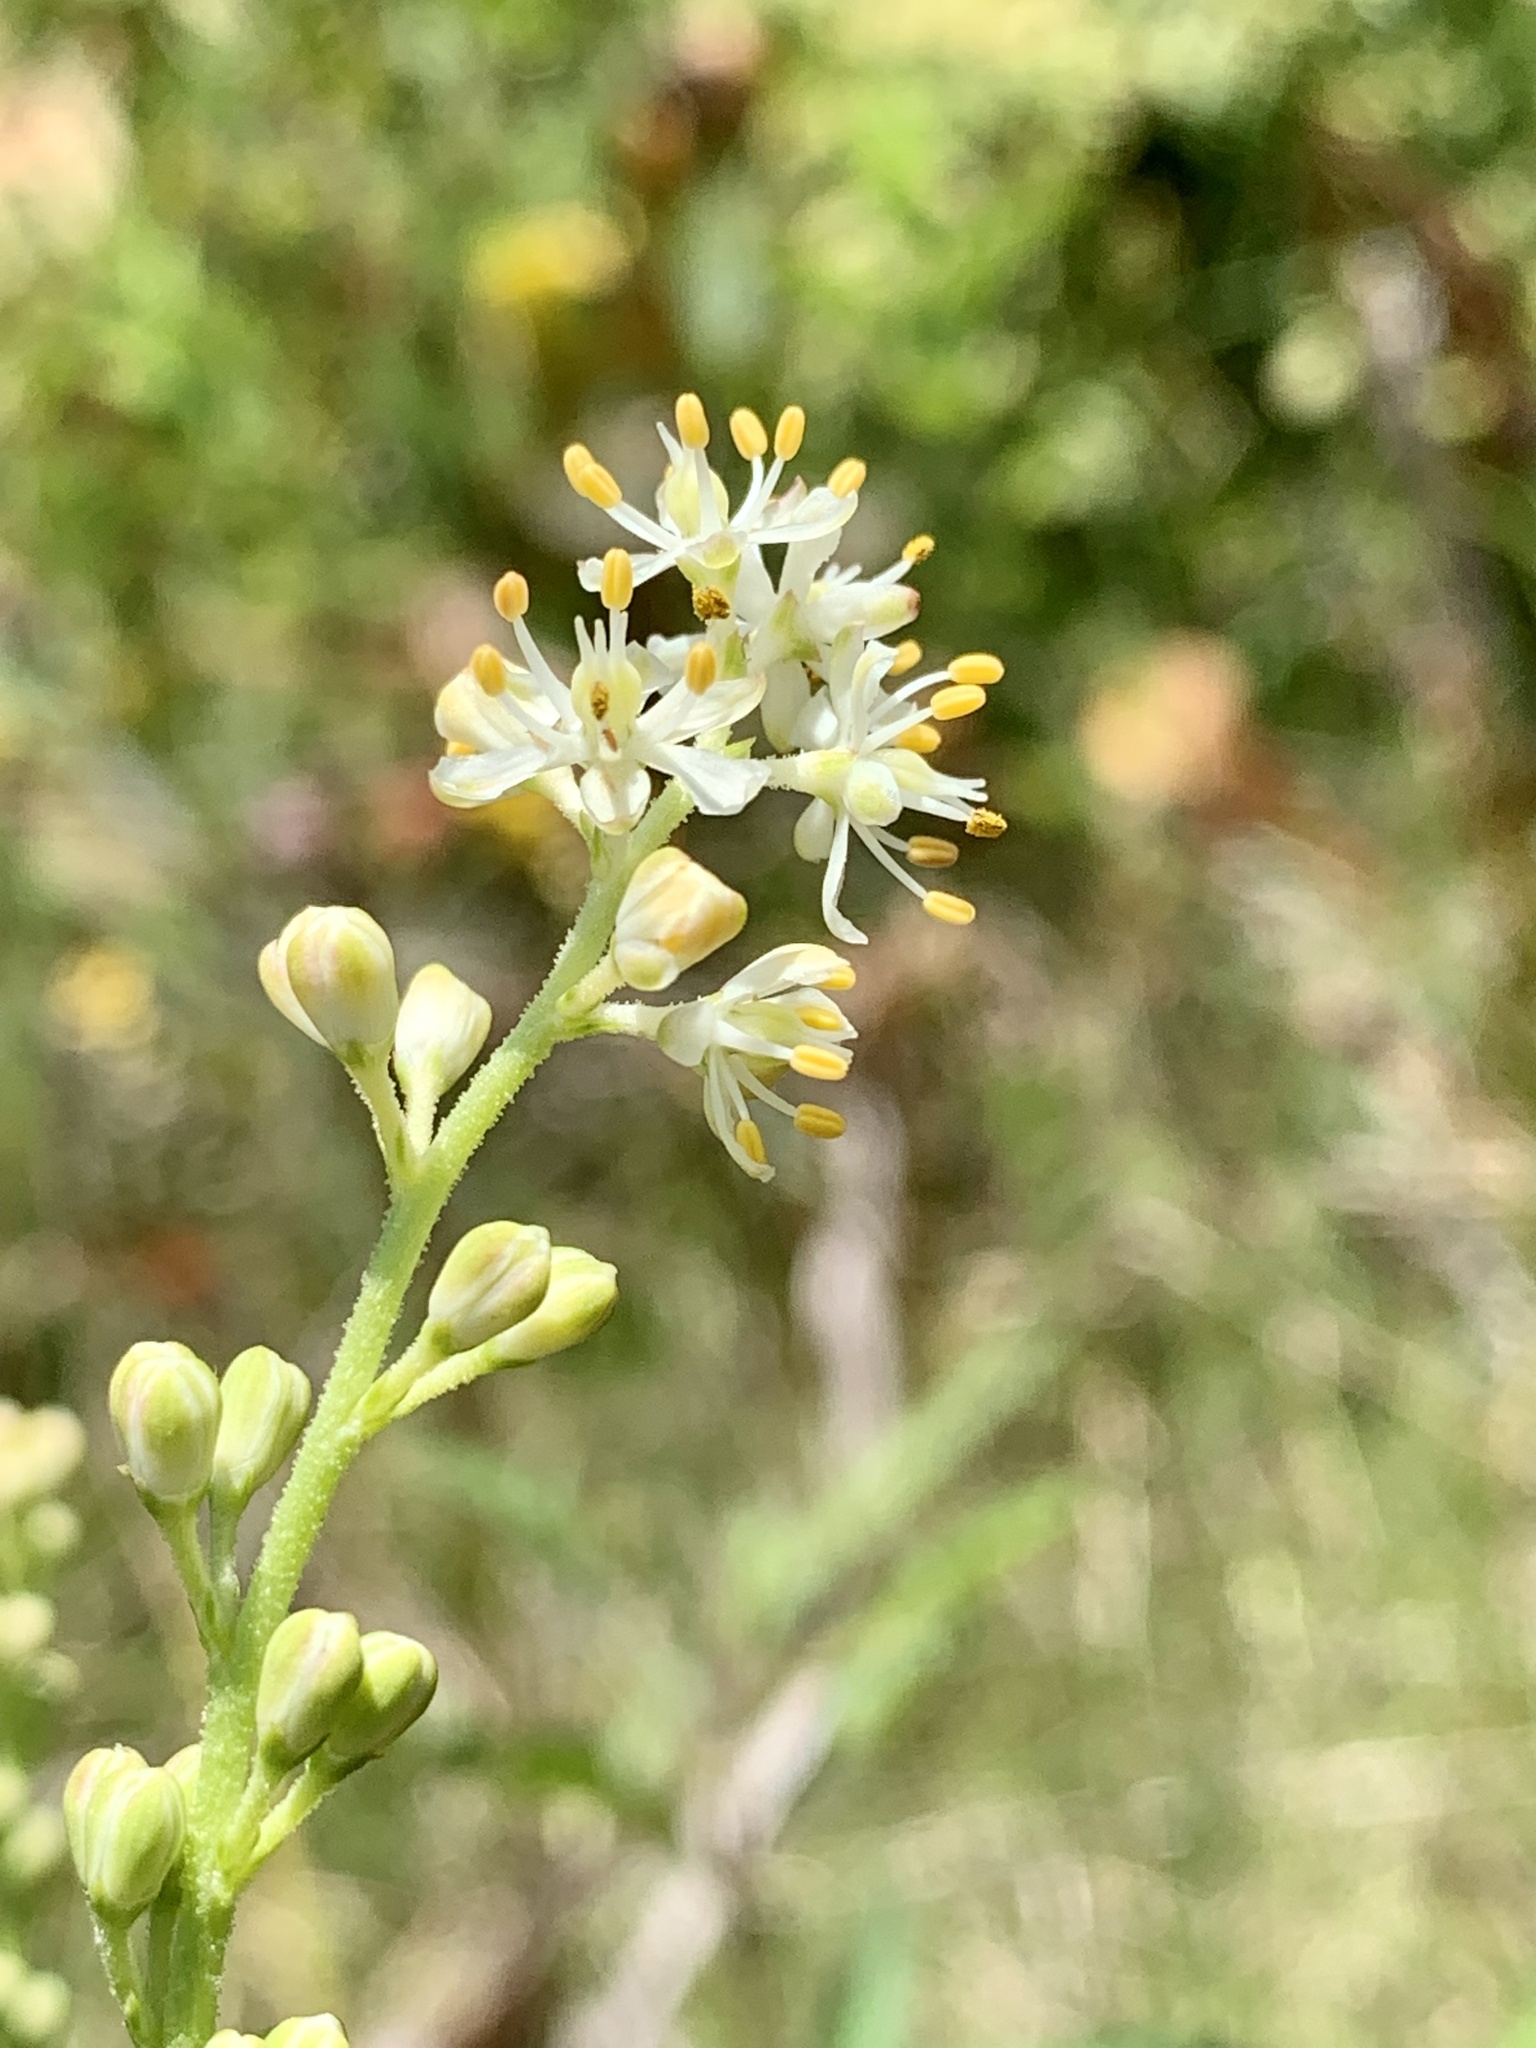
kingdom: Plantae
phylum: Tracheophyta
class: Liliopsida
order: Alismatales
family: Tofieldiaceae
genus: Triantha
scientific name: Triantha racemosa
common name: Coastal false asphodel
